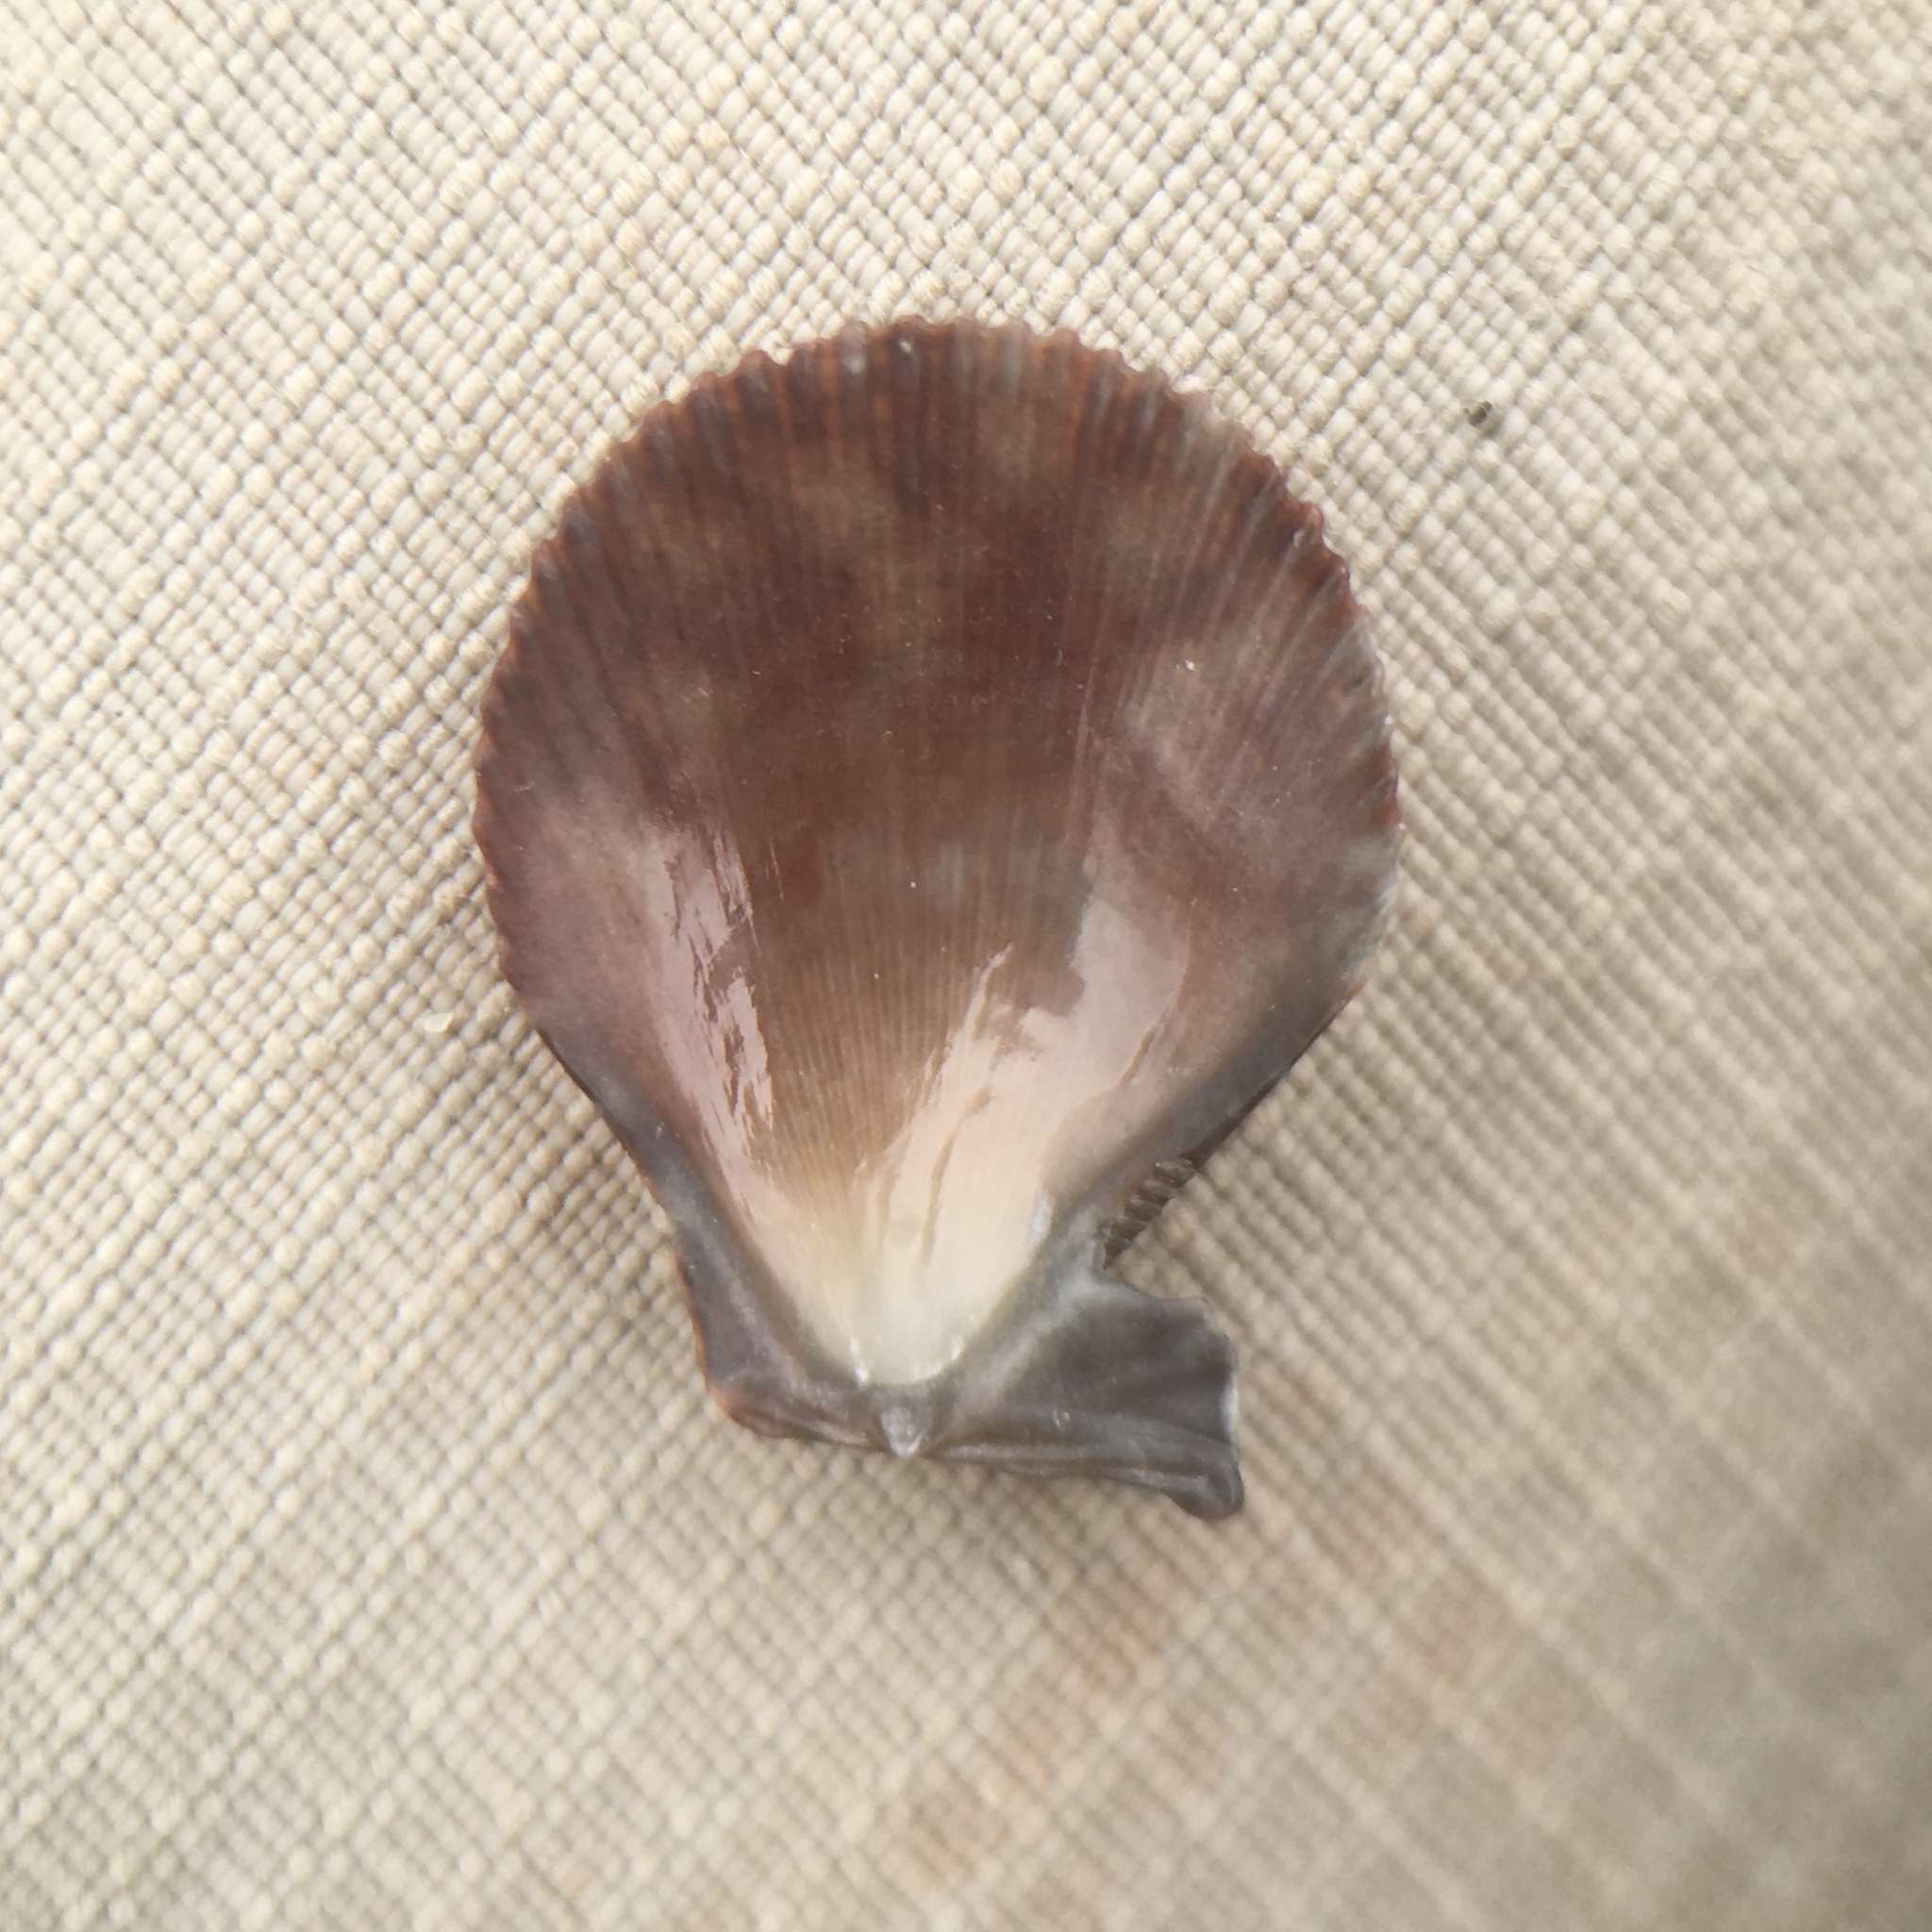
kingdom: Animalia
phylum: Mollusca
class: Bivalvia
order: Pectinida
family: Pectinidae
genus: Mimachlamys
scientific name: Mimachlamys varia
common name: Variegated scallop
